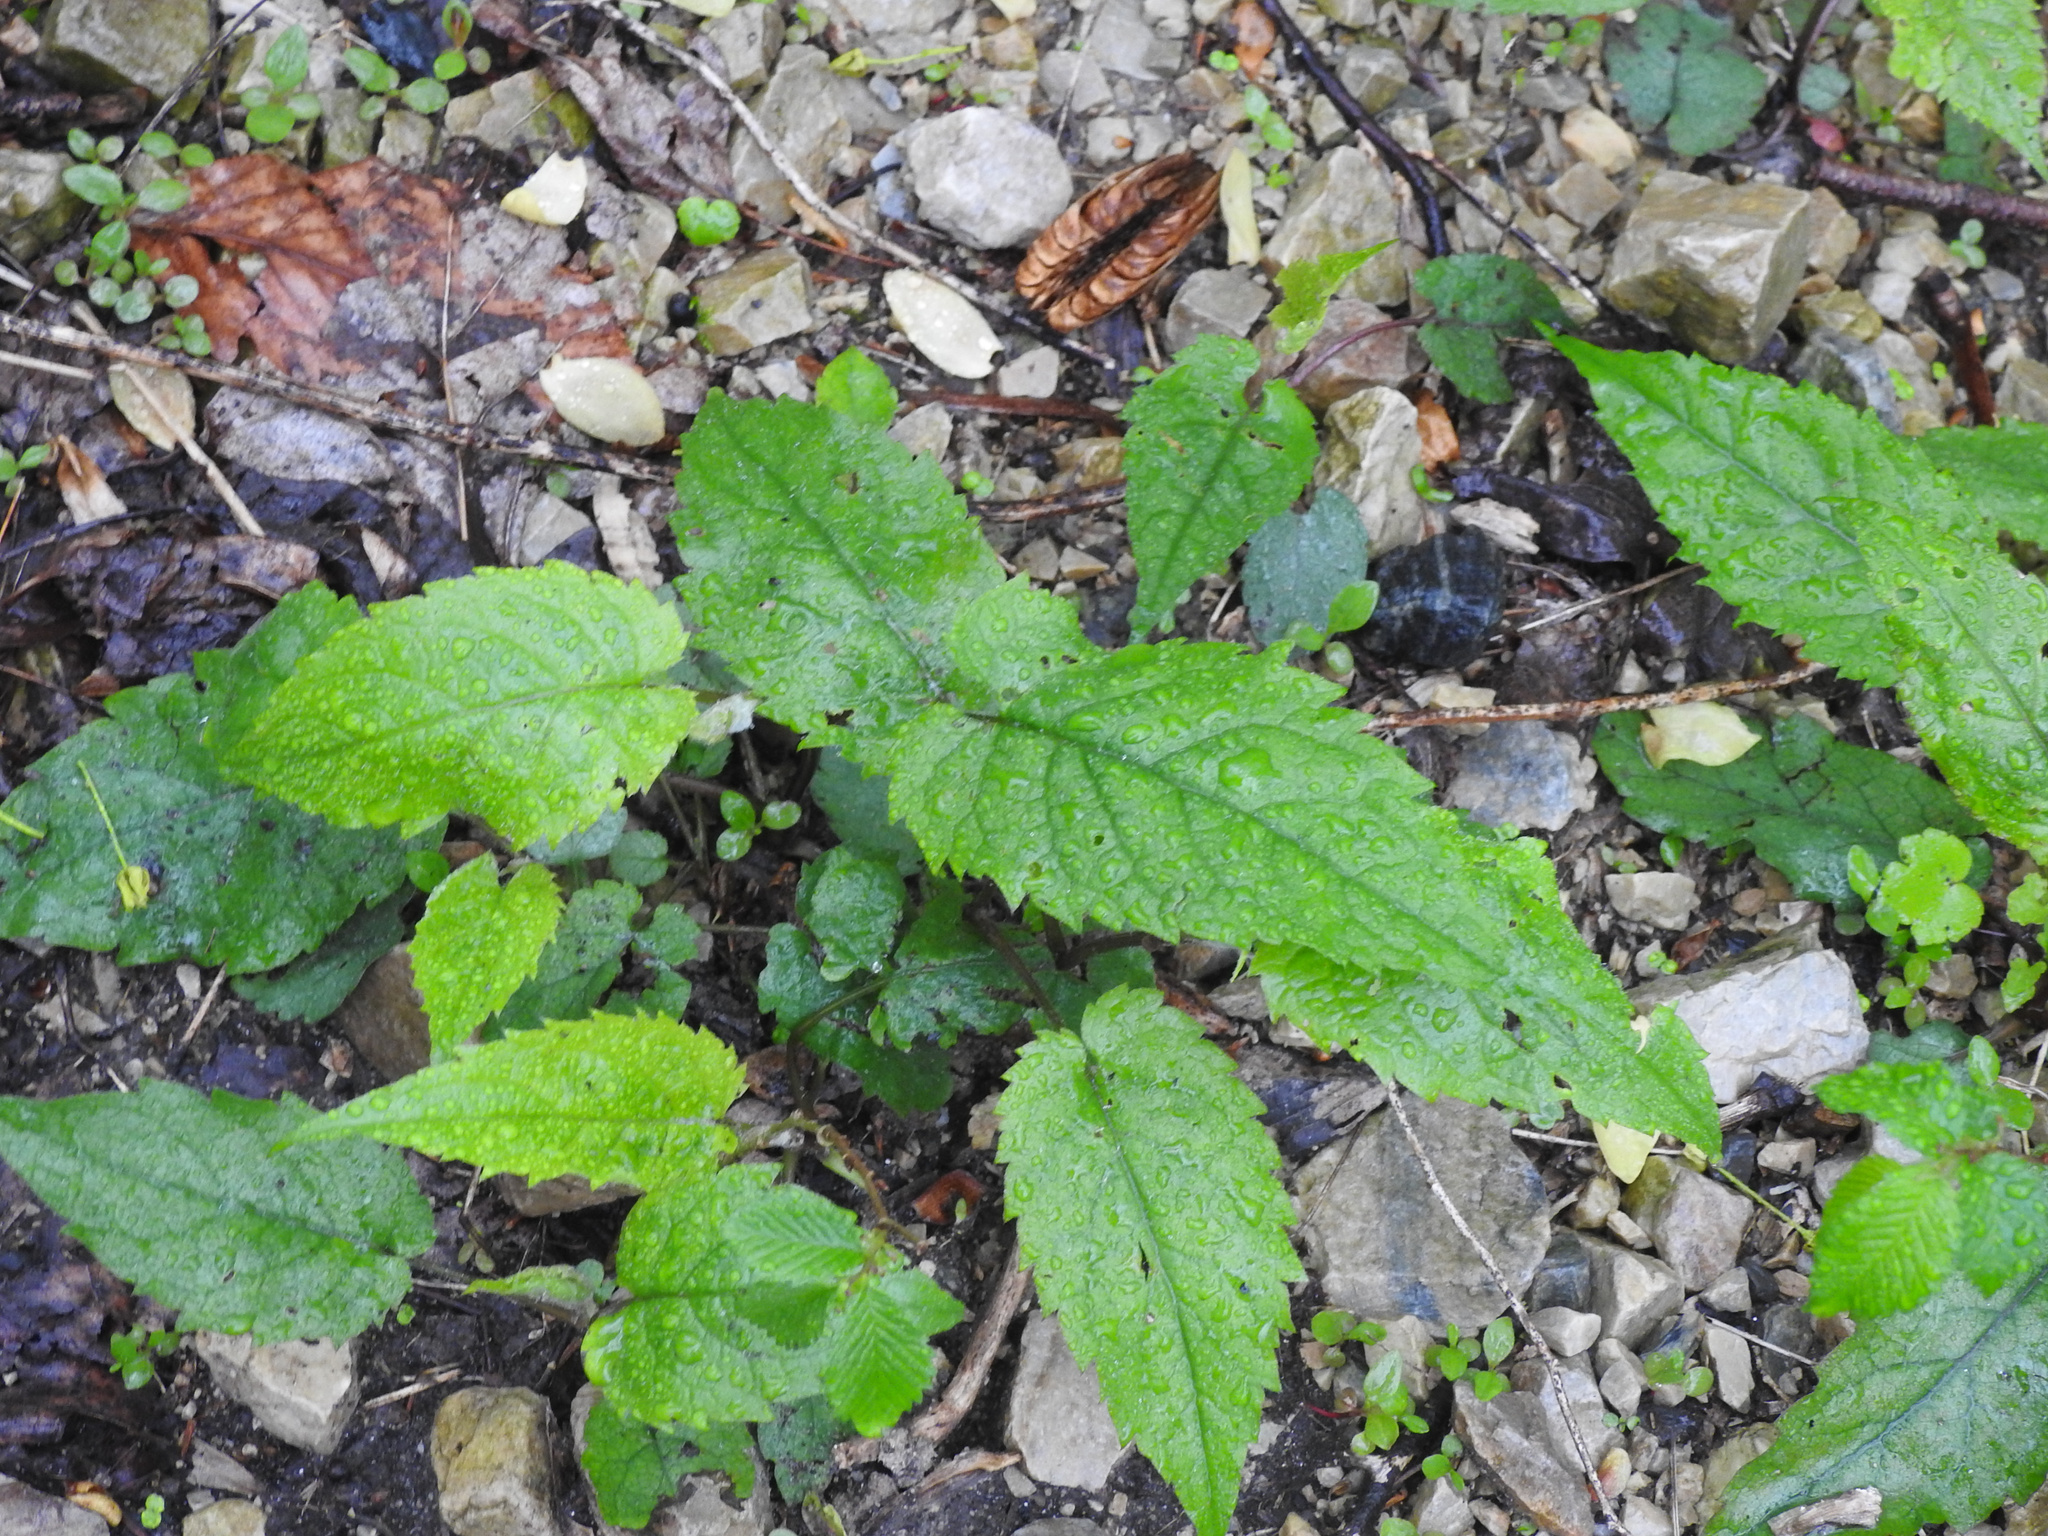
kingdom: Plantae
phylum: Tracheophyta
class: Magnoliopsida
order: Asterales
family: Asteraceae
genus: Eurybia
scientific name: Eurybia divaricata
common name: White wood aster
